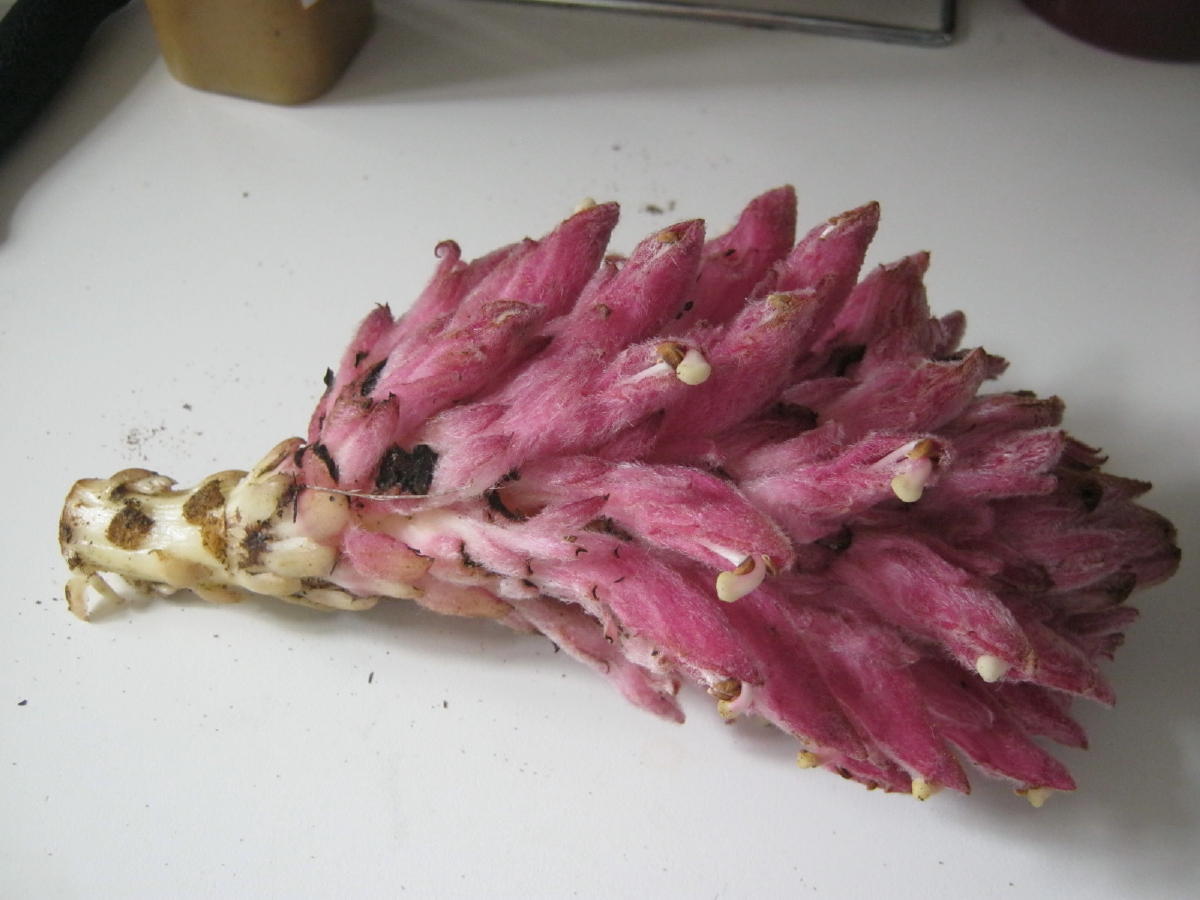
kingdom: Plantae
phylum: Tracheophyta
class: Magnoliopsida
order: Lamiales
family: Orobanchaceae
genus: Hyobanche
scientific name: Hyobanche robusta
